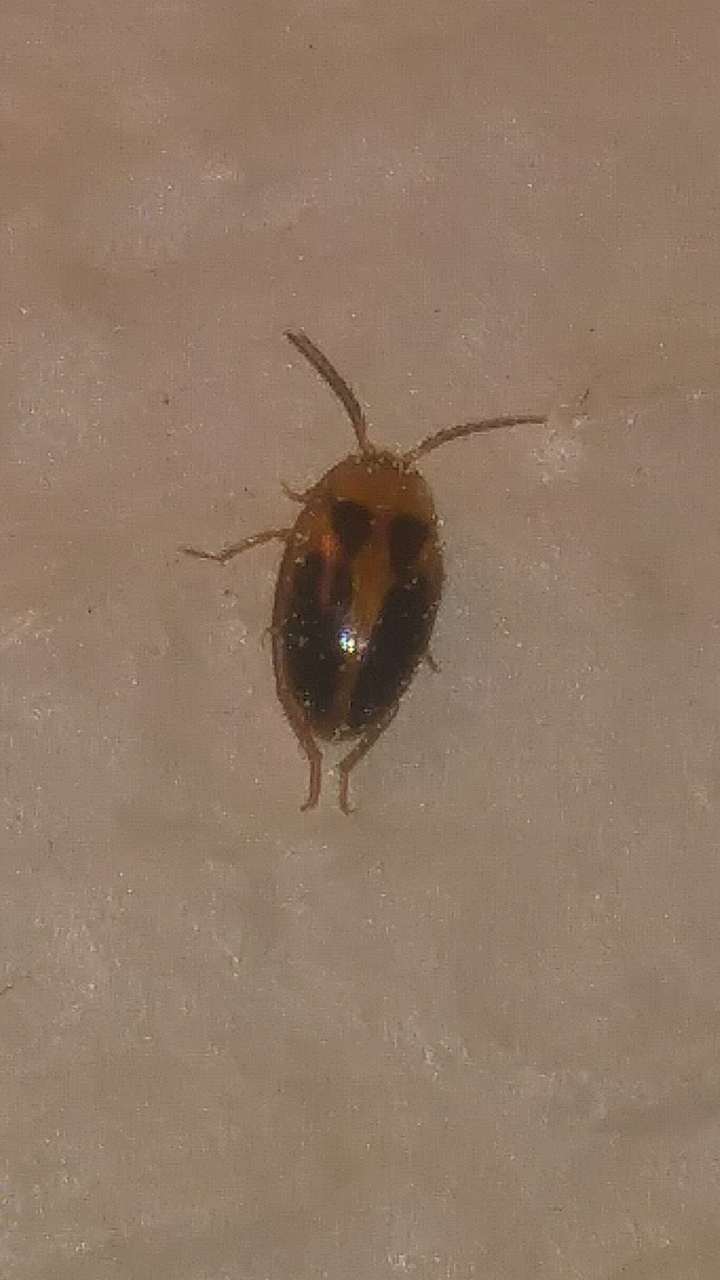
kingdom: Animalia
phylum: Arthropoda
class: Insecta
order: Coleoptera
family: Scirtidae
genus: Sacodes
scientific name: Sacodes pulchella
